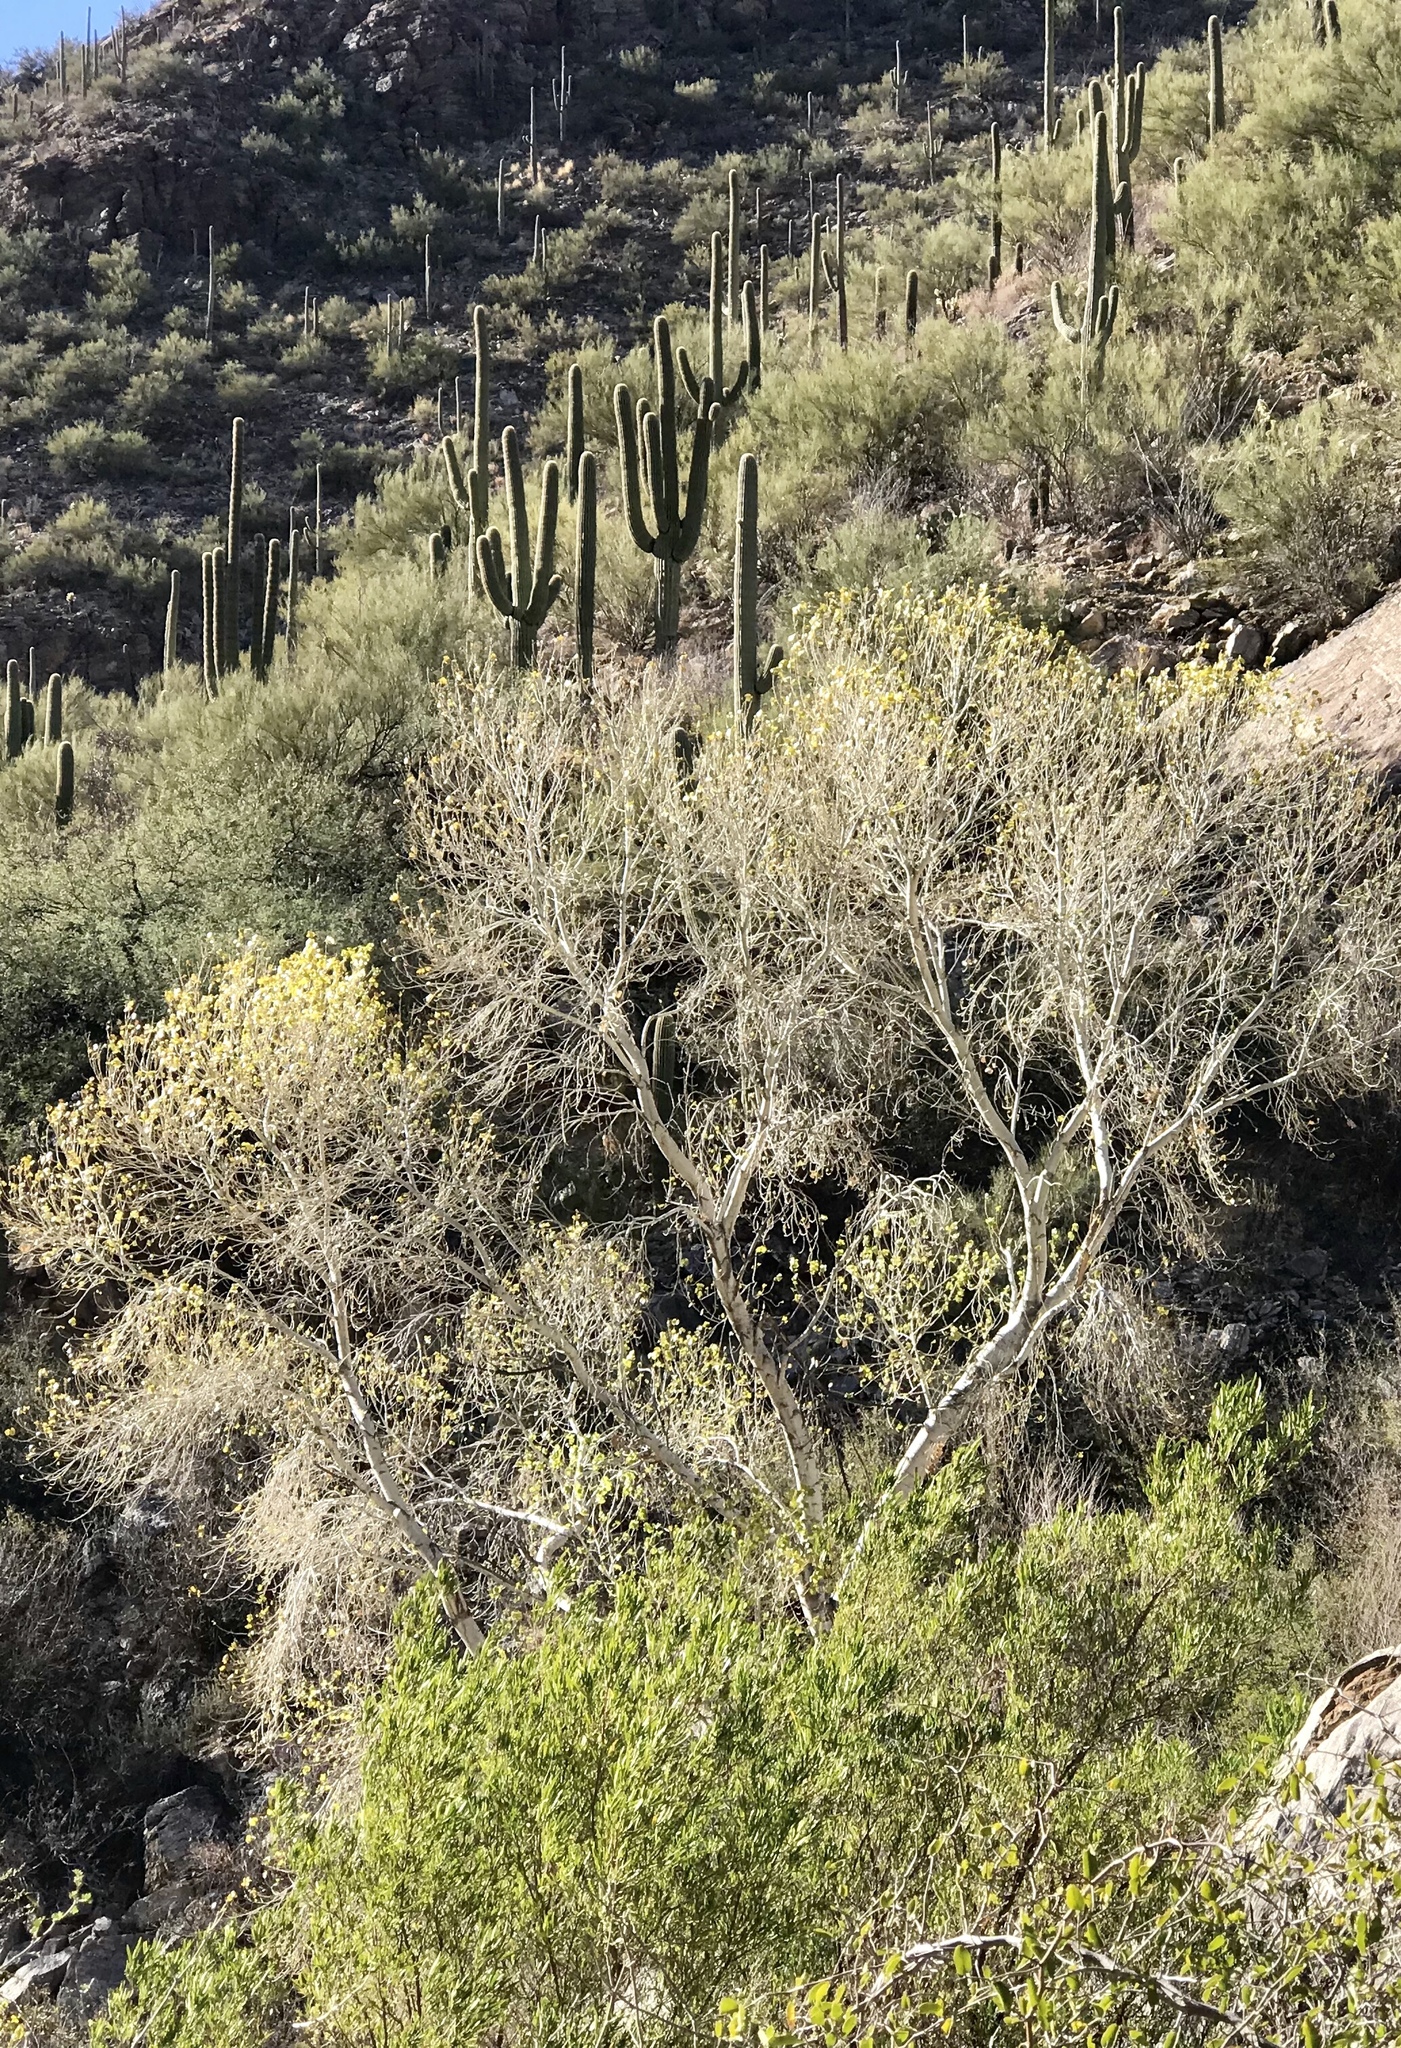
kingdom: Plantae
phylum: Tracheophyta
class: Magnoliopsida
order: Proteales
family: Platanaceae
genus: Platanus
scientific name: Platanus wrightii
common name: Arizona sycamore
